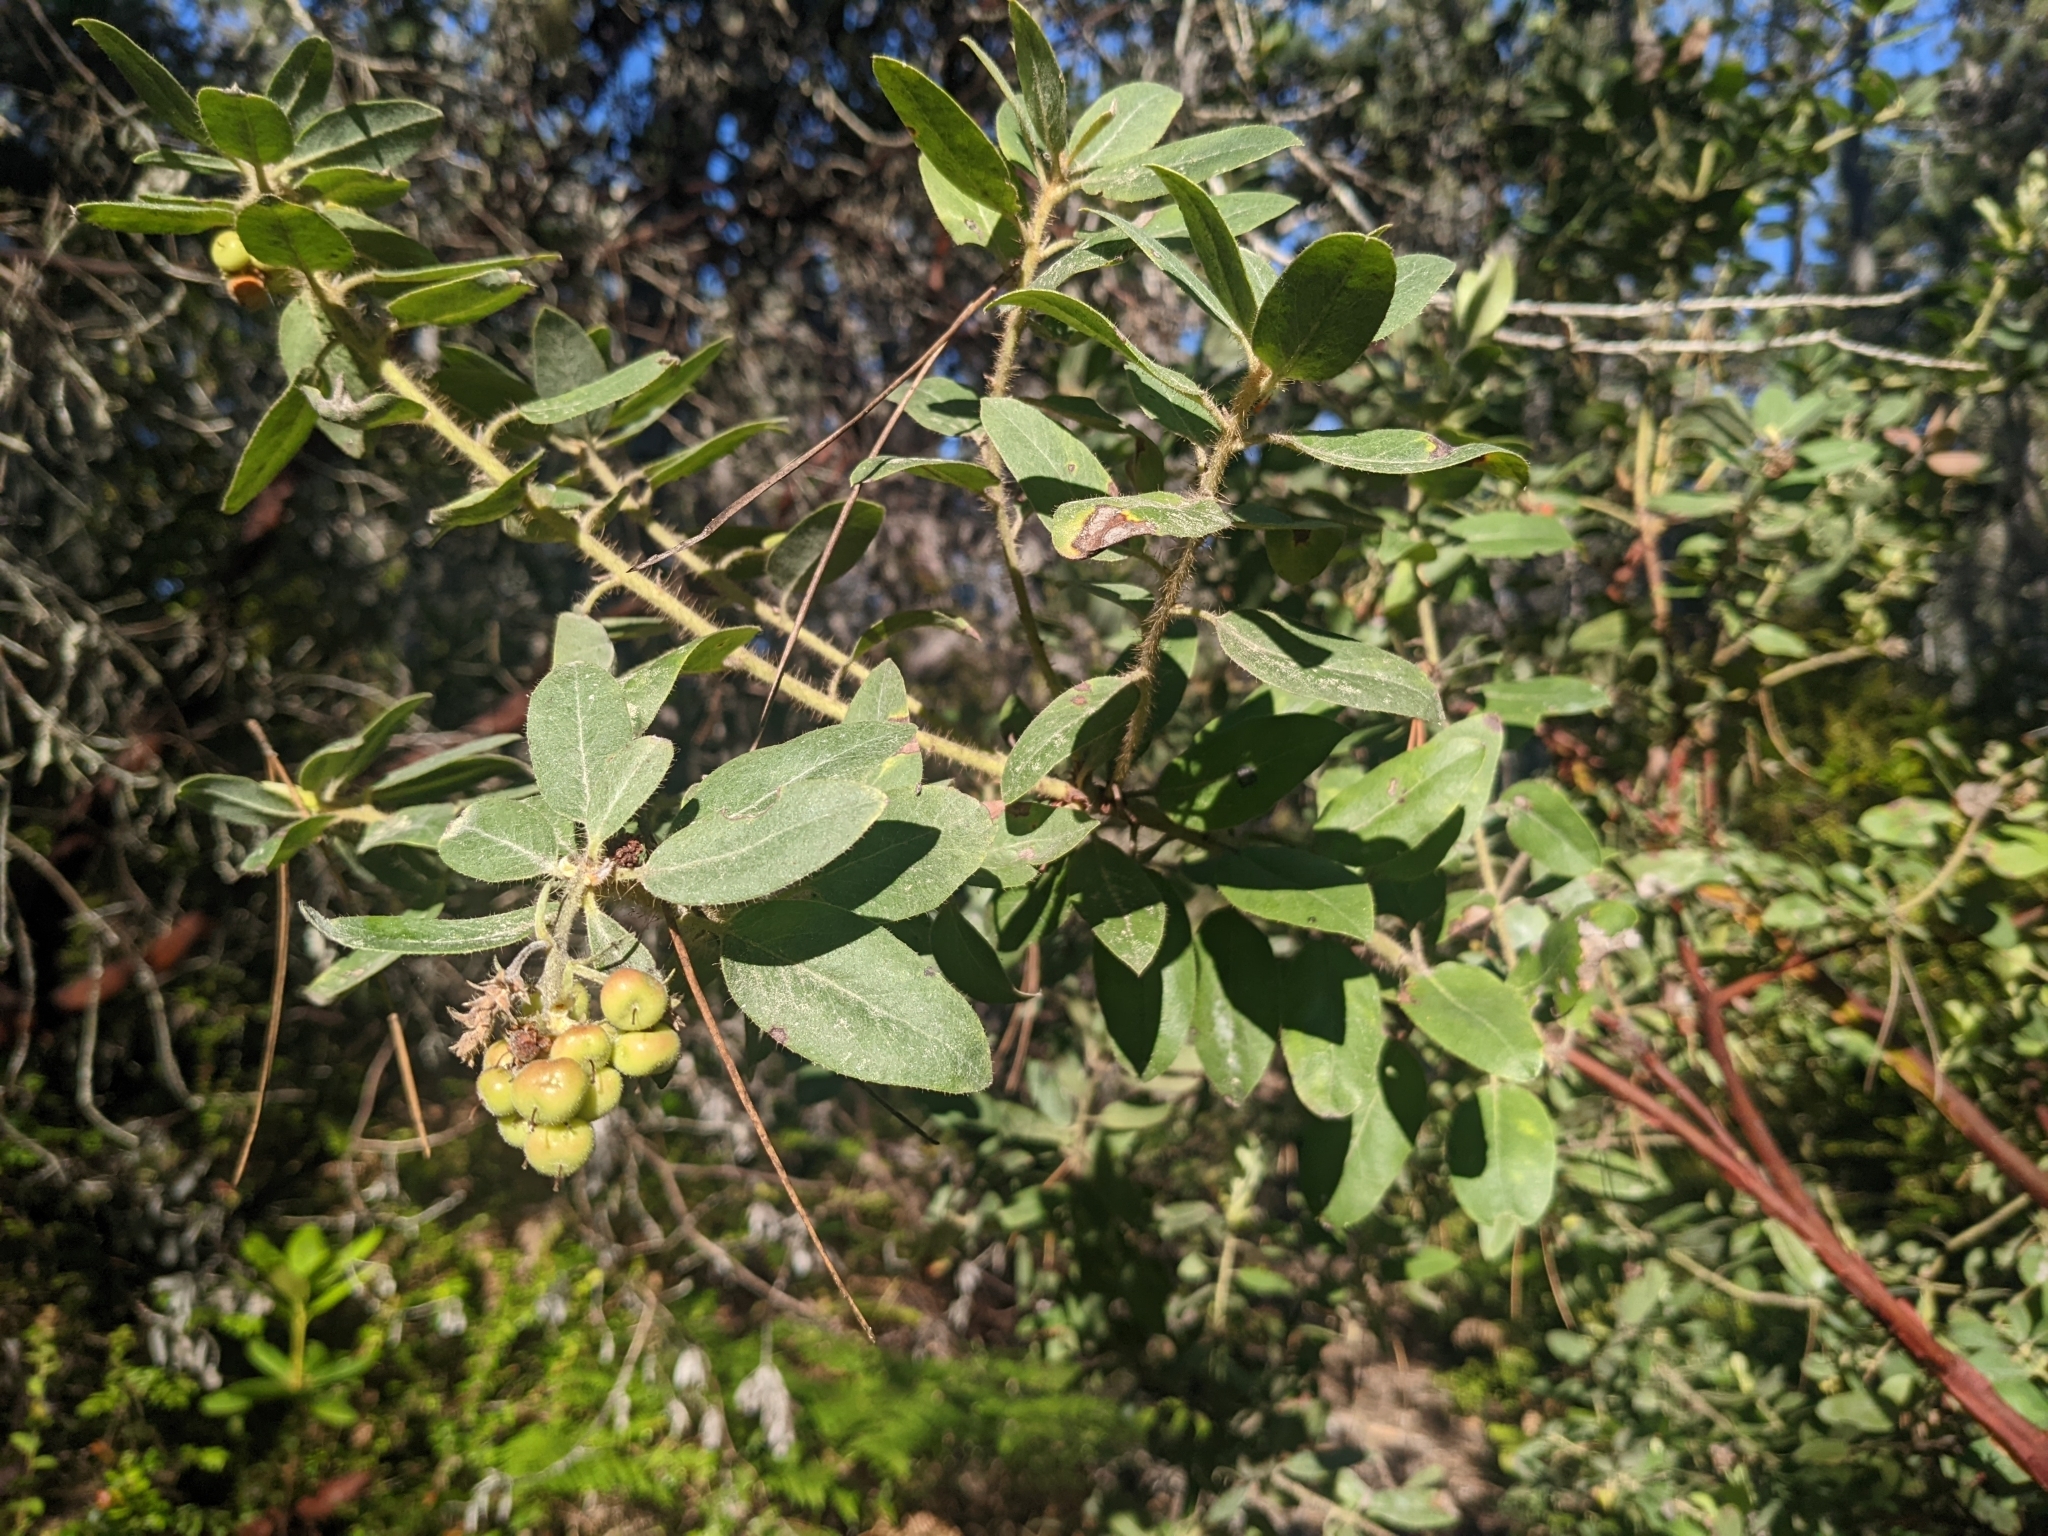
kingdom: Plantae
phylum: Tracheophyta
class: Magnoliopsida
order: Ericales
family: Ericaceae
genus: Arctostaphylos
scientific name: Arctostaphylos columbiana
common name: Bristly bearberry
